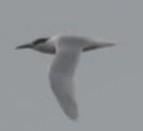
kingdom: Animalia
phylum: Chordata
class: Aves
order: Charadriiformes
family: Laridae
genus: Thalasseus
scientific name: Thalasseus sandvicensis
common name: Sandwich tern
